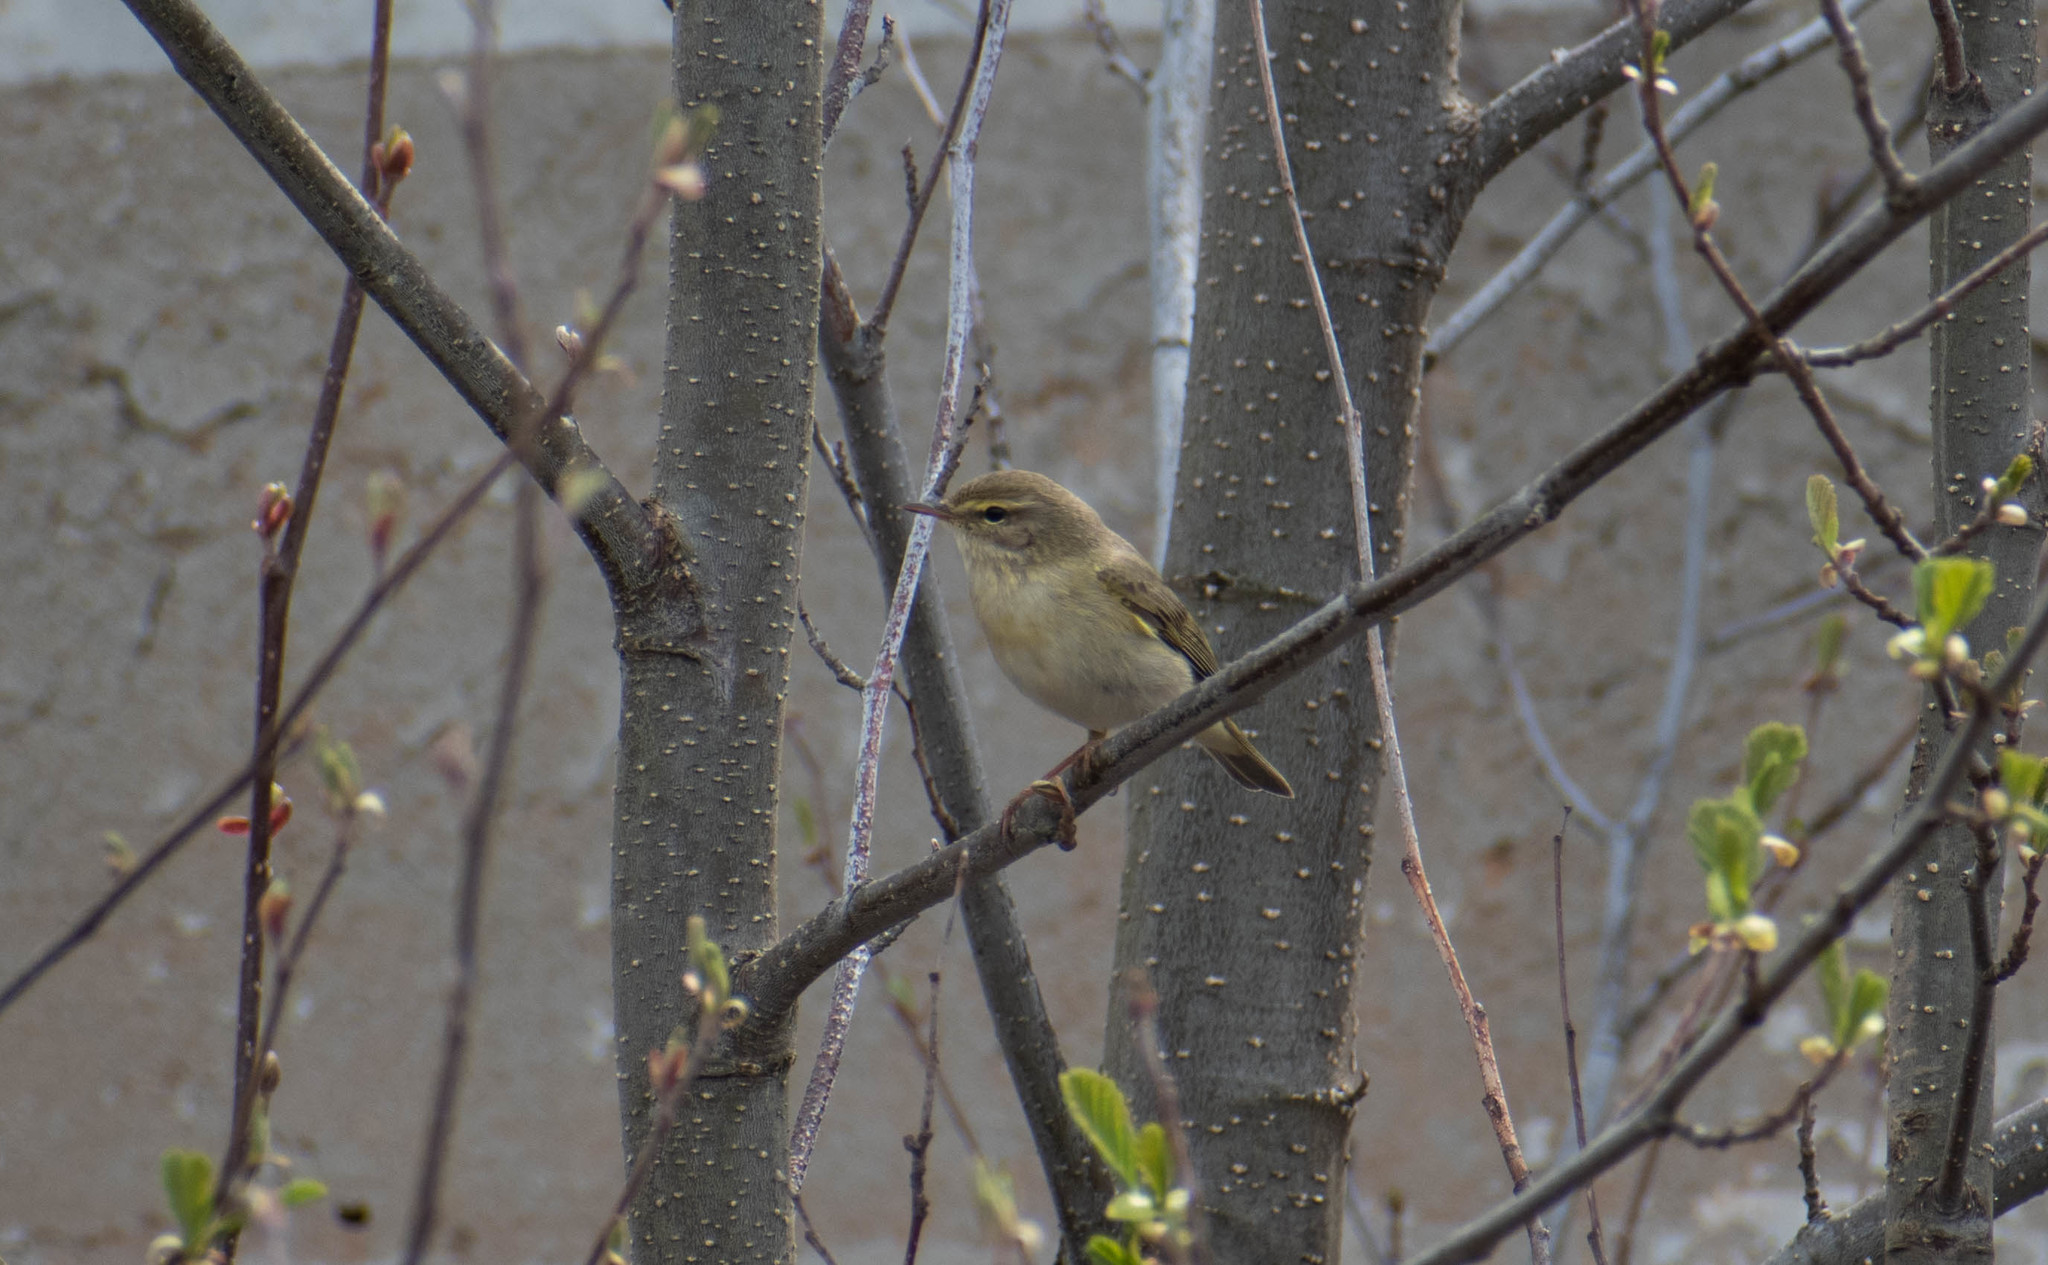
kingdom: Animalia
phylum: Chordata
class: Aves
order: Passeriformes
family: Phylloscopidae
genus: Phylloscopus
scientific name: Phylloscopus trochilus
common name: Willow warbler
